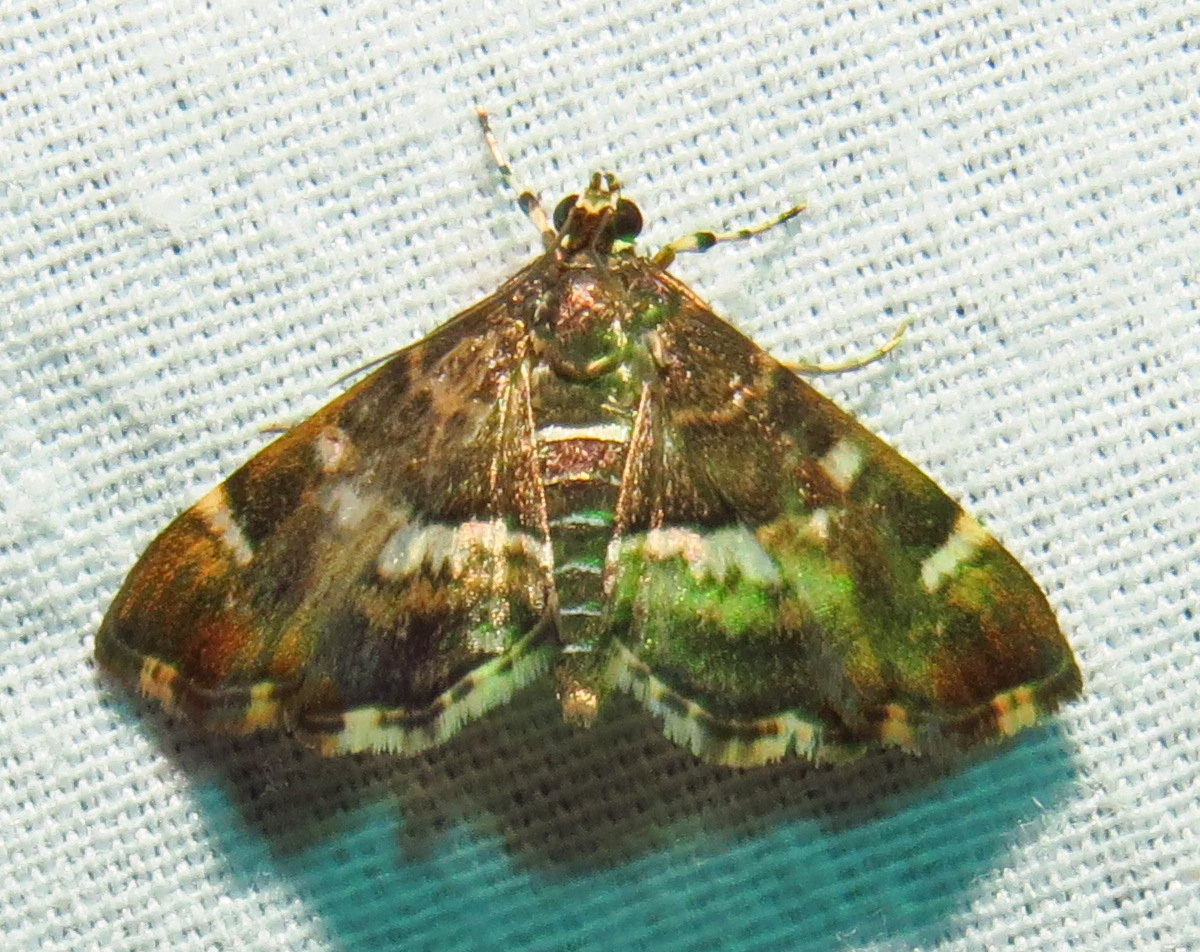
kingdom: Animalia
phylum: Arthropoda
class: Insecta
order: Lepidoptera
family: Crambidae
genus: Hymenia
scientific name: Hymenia perspectalis
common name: Spotted beet webworm
